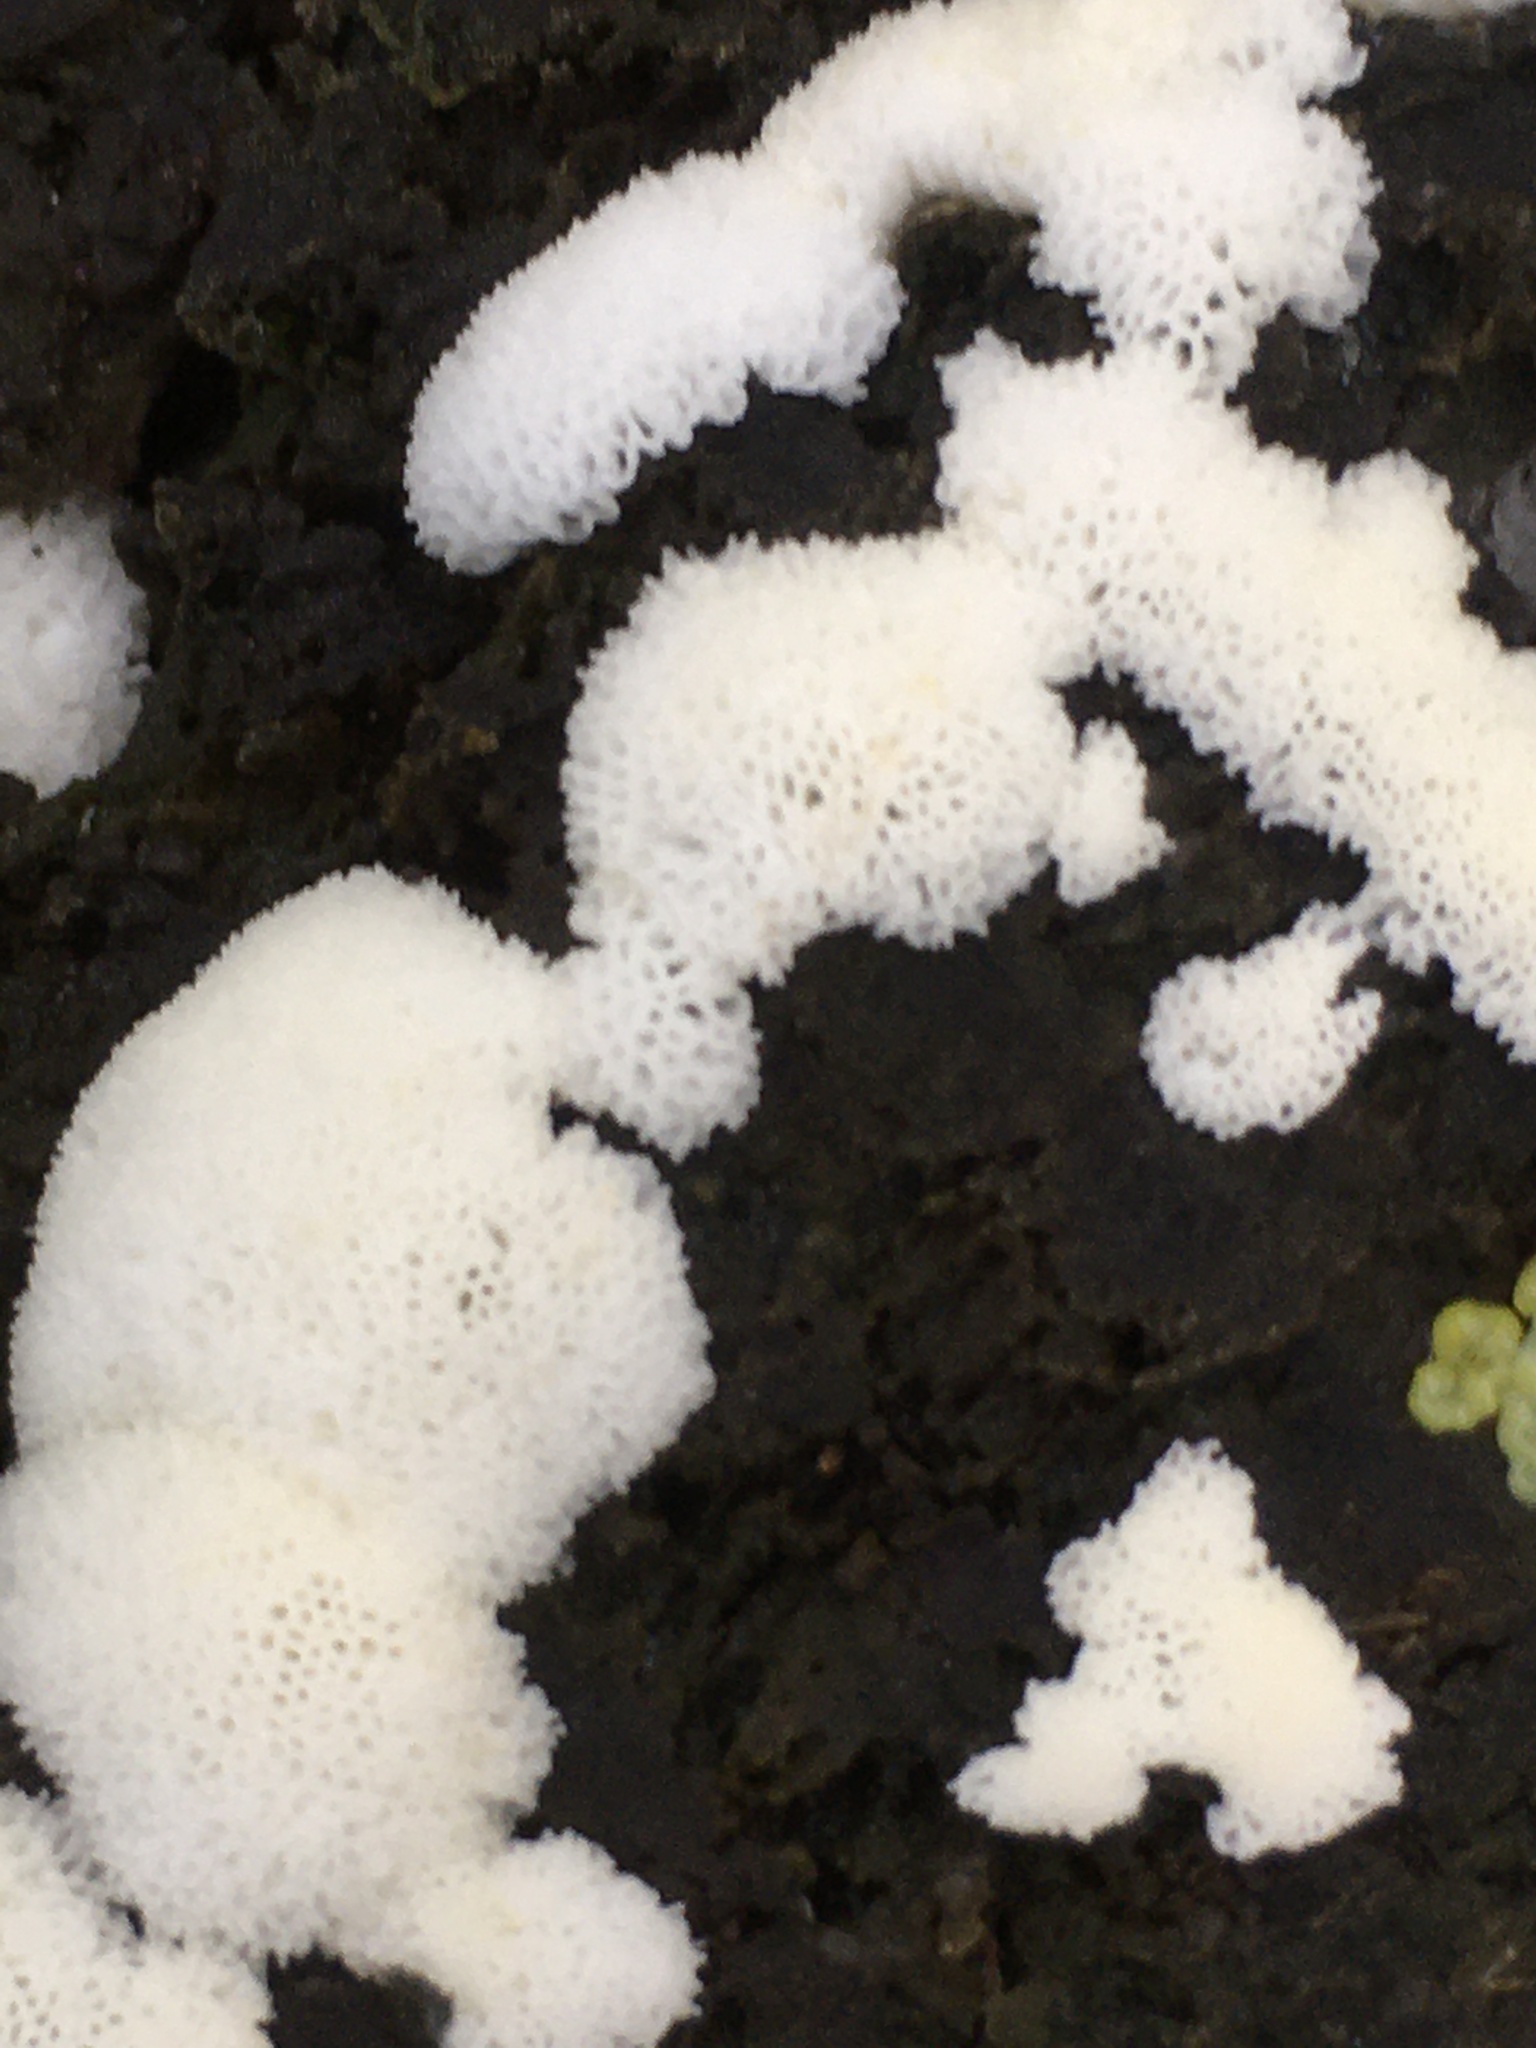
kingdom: Protozoa
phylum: Mycetozoa
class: Protosteliomycetes
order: Ceratiomyxales
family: Ceratiomyxaceae
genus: Ceratiomyxa
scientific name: Ceratiomyxa fruticulosa
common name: Honeycomb coral slime mold
